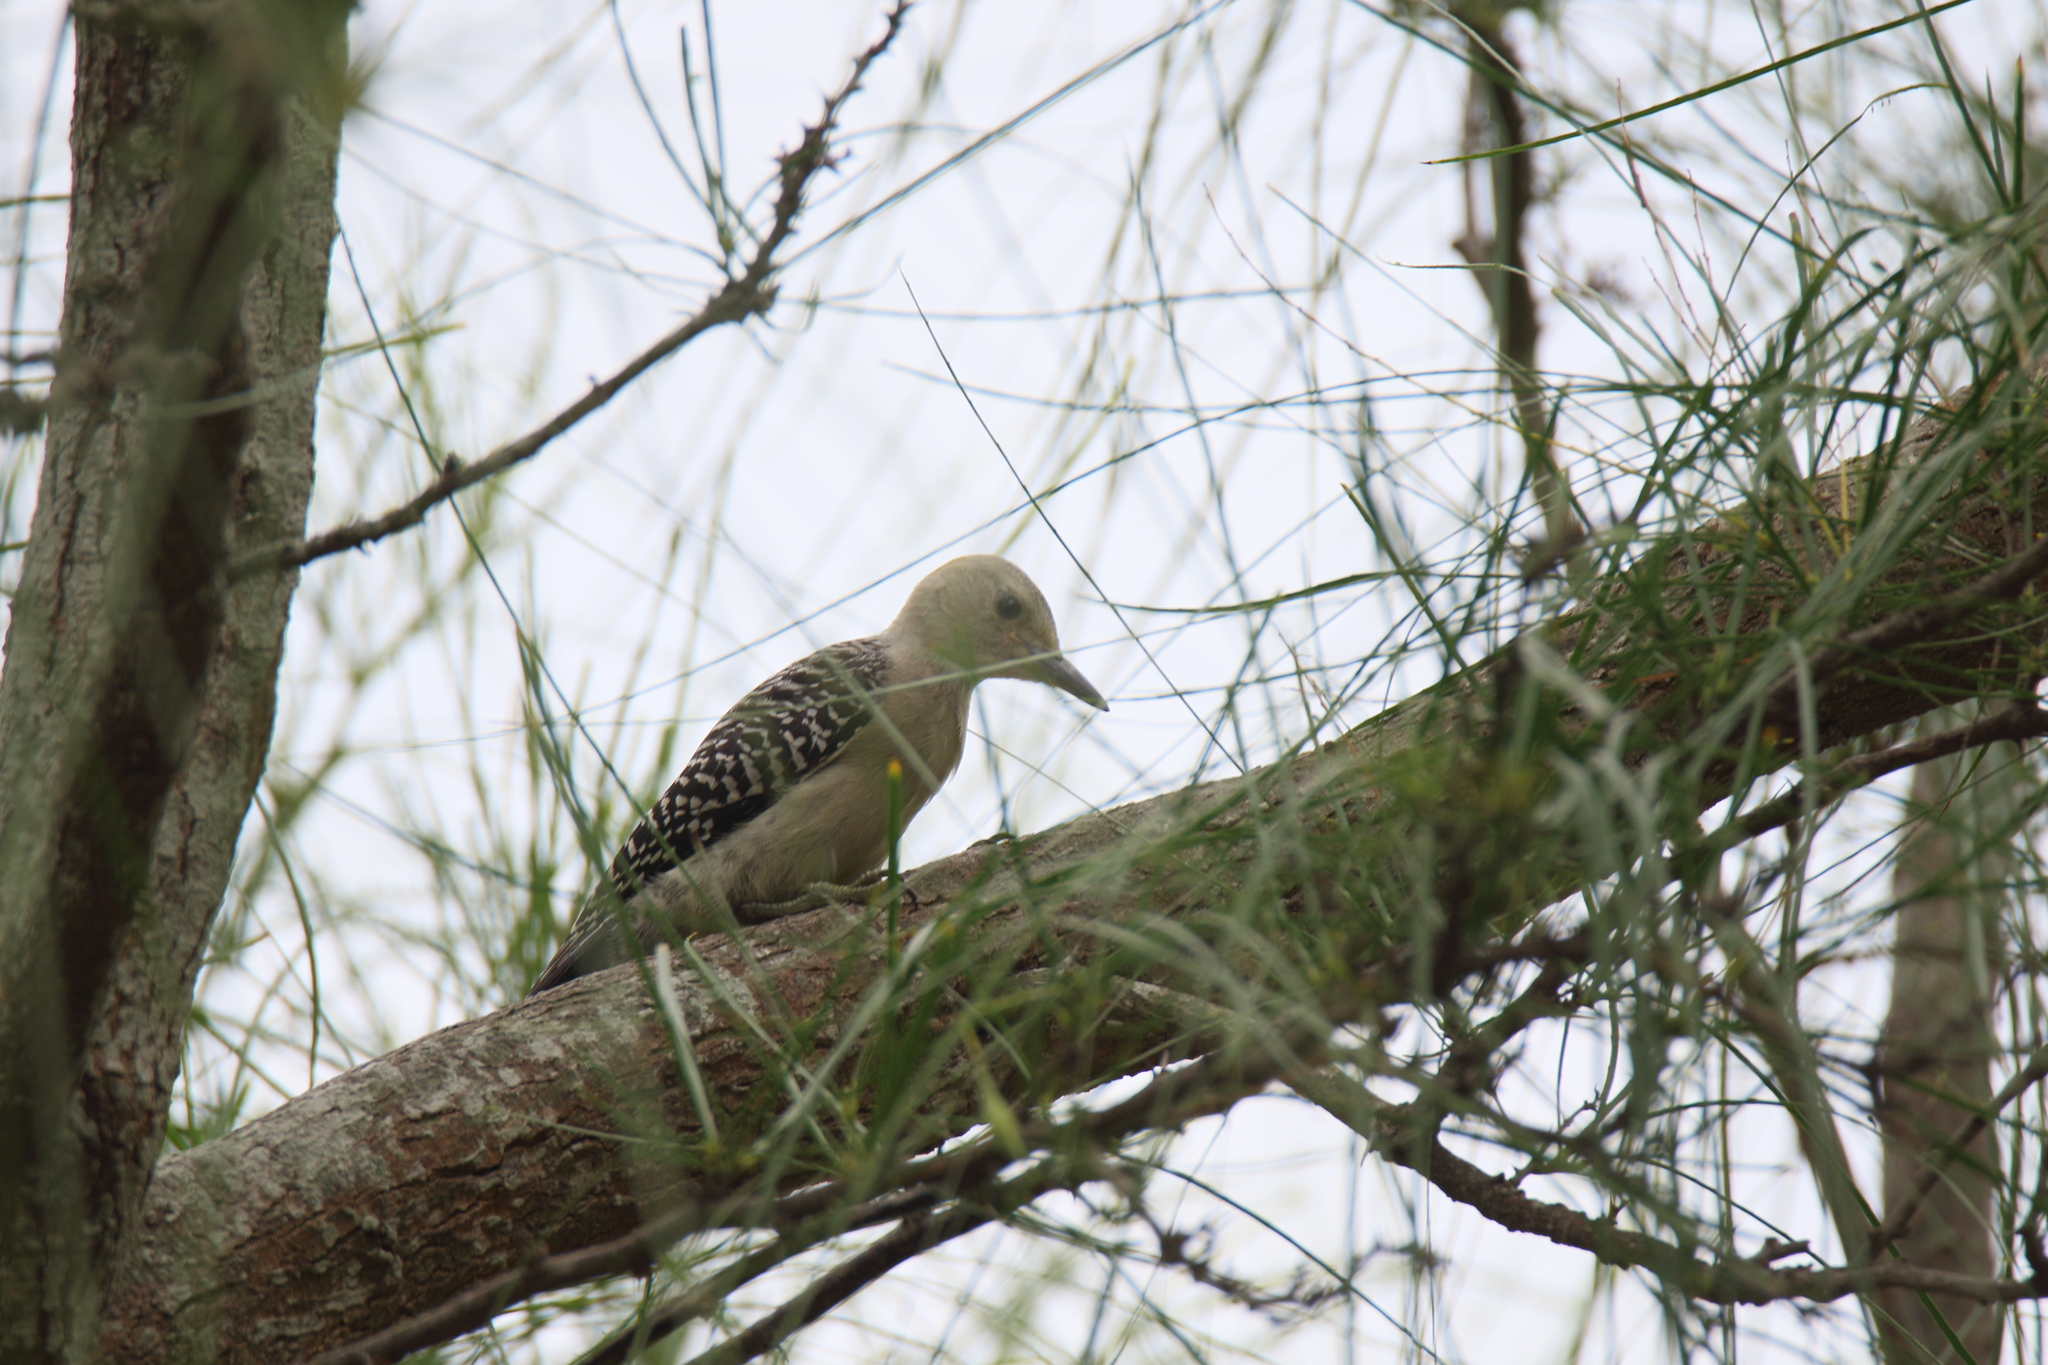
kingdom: Animalia
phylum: Chordata
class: Aves
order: Piciformes
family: Picidae
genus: Melanerpes
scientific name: Melanerpes aurifrons
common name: Golden-fronted woodpecker
